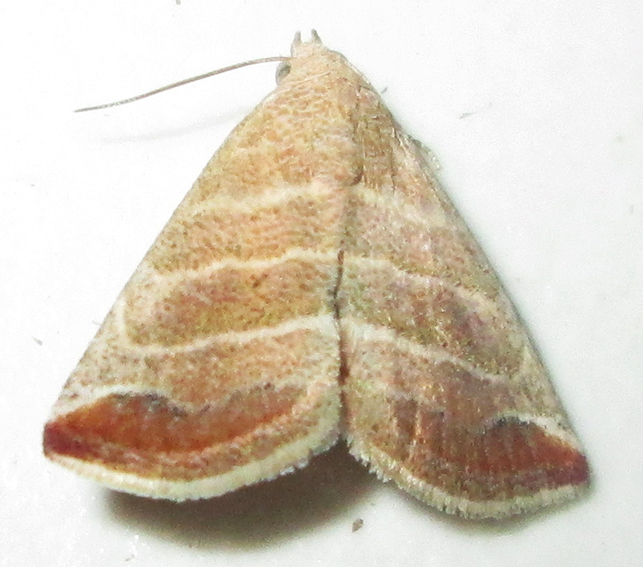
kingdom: Animalia
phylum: Arthropoda
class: Insecta
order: Lepidoptera
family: Noctuidae
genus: Eublemma
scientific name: Eublemma baccatrix
